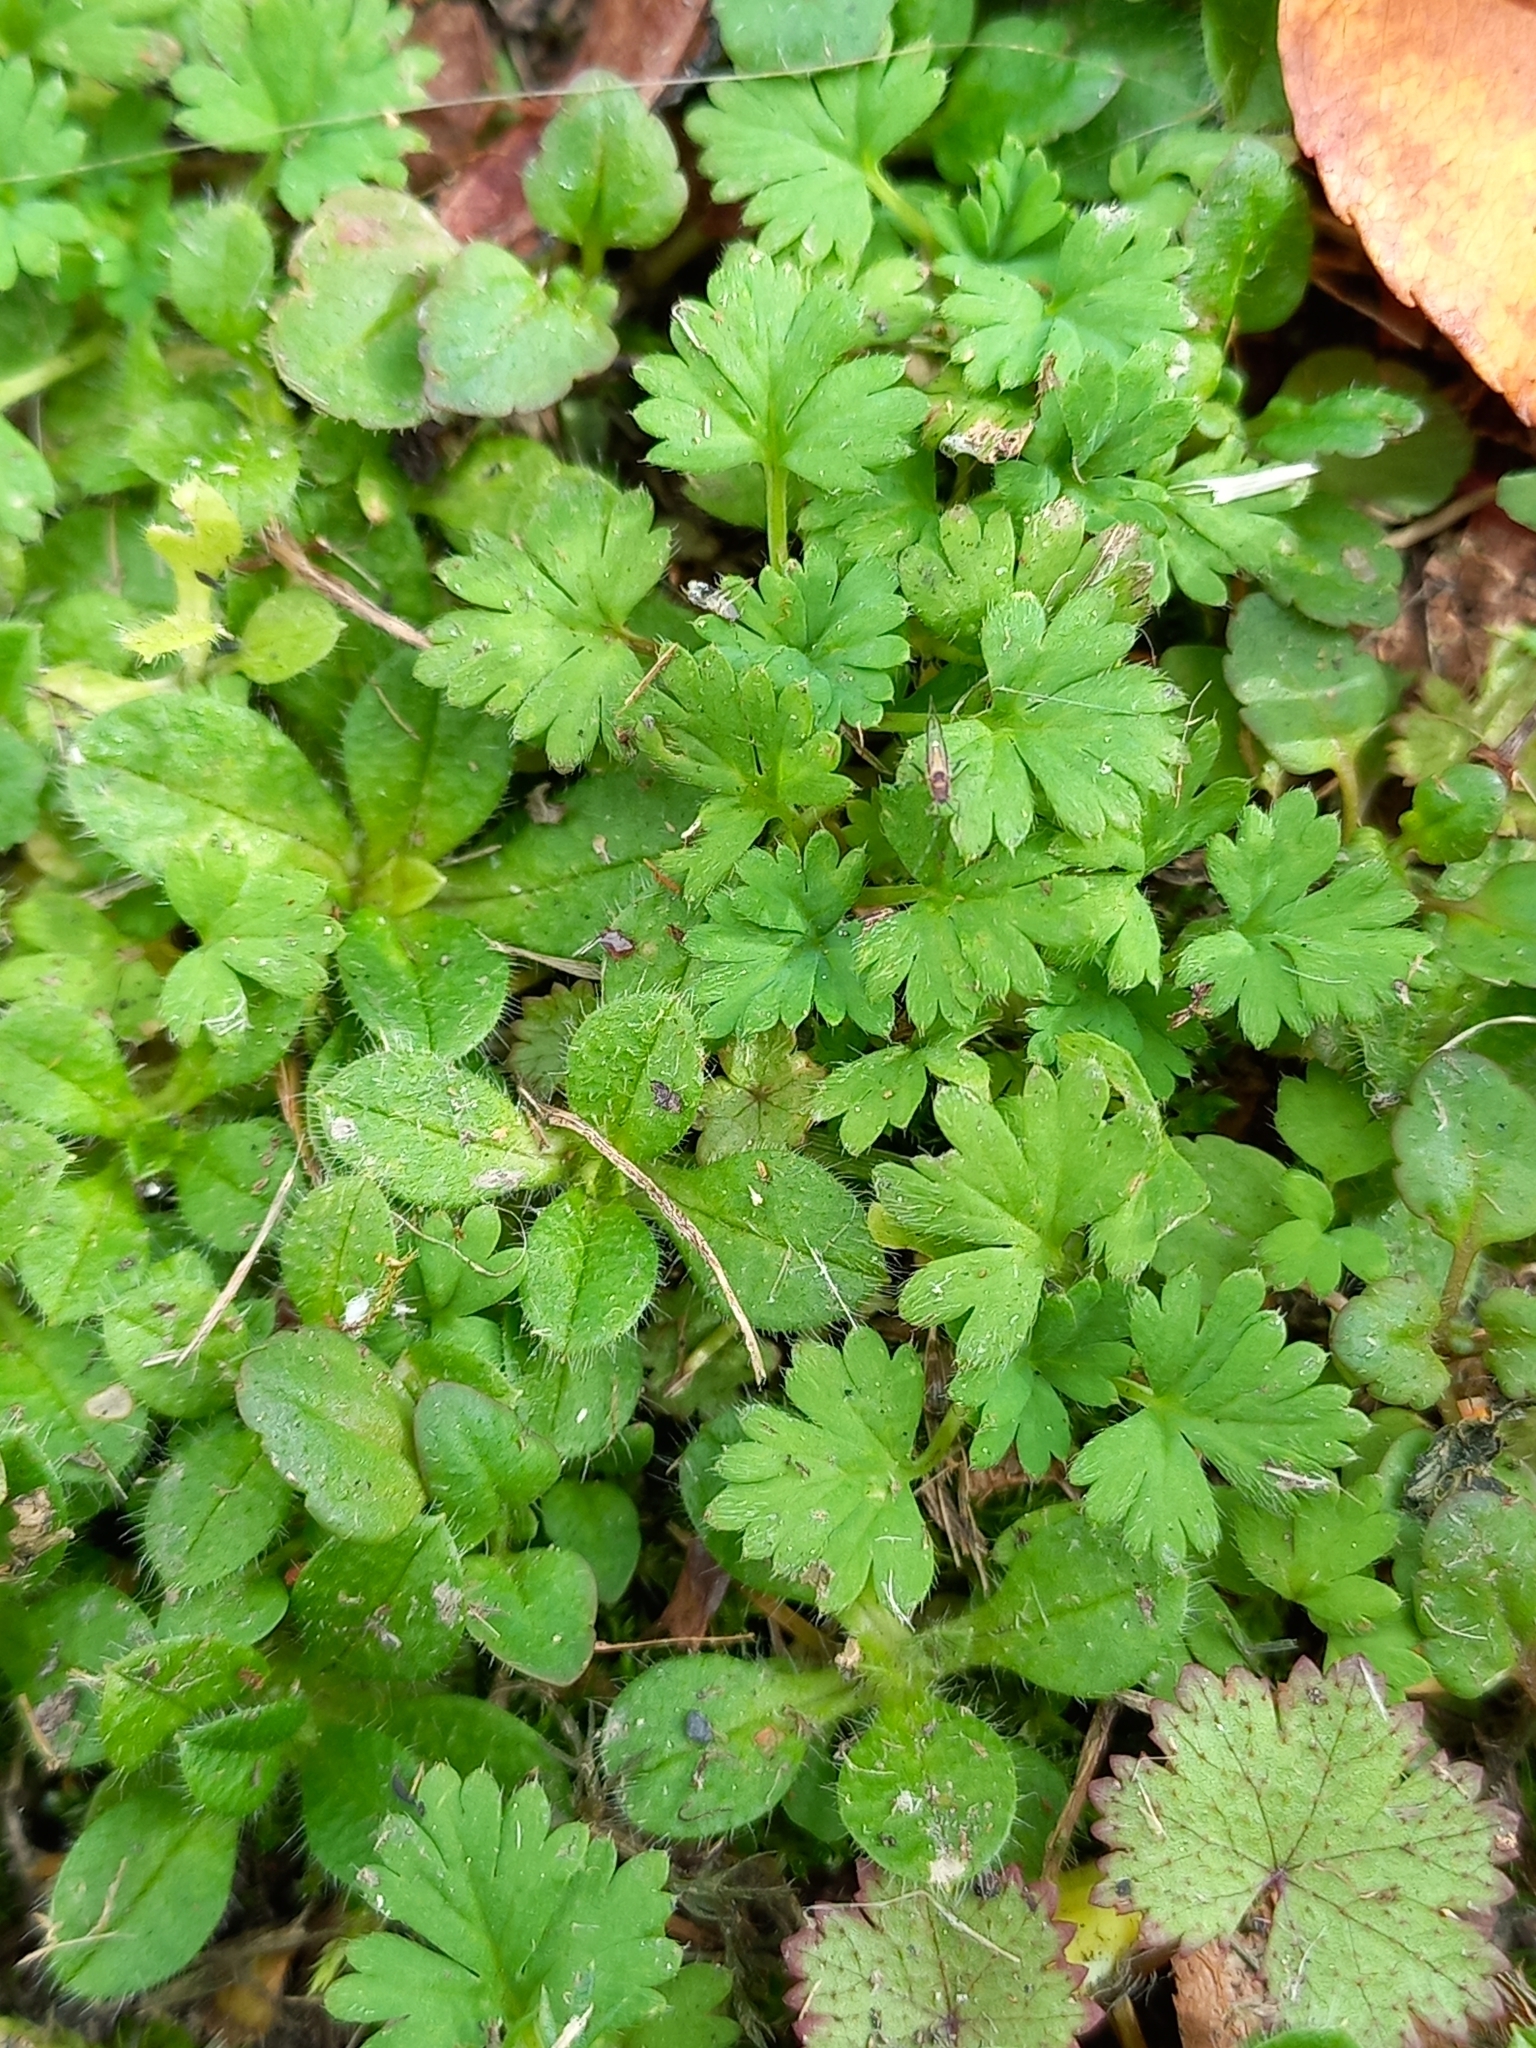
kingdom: Plantae
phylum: Tracheophyta
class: Magnoliopsida
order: Rosales
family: Rosaceae
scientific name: Rosaceae
